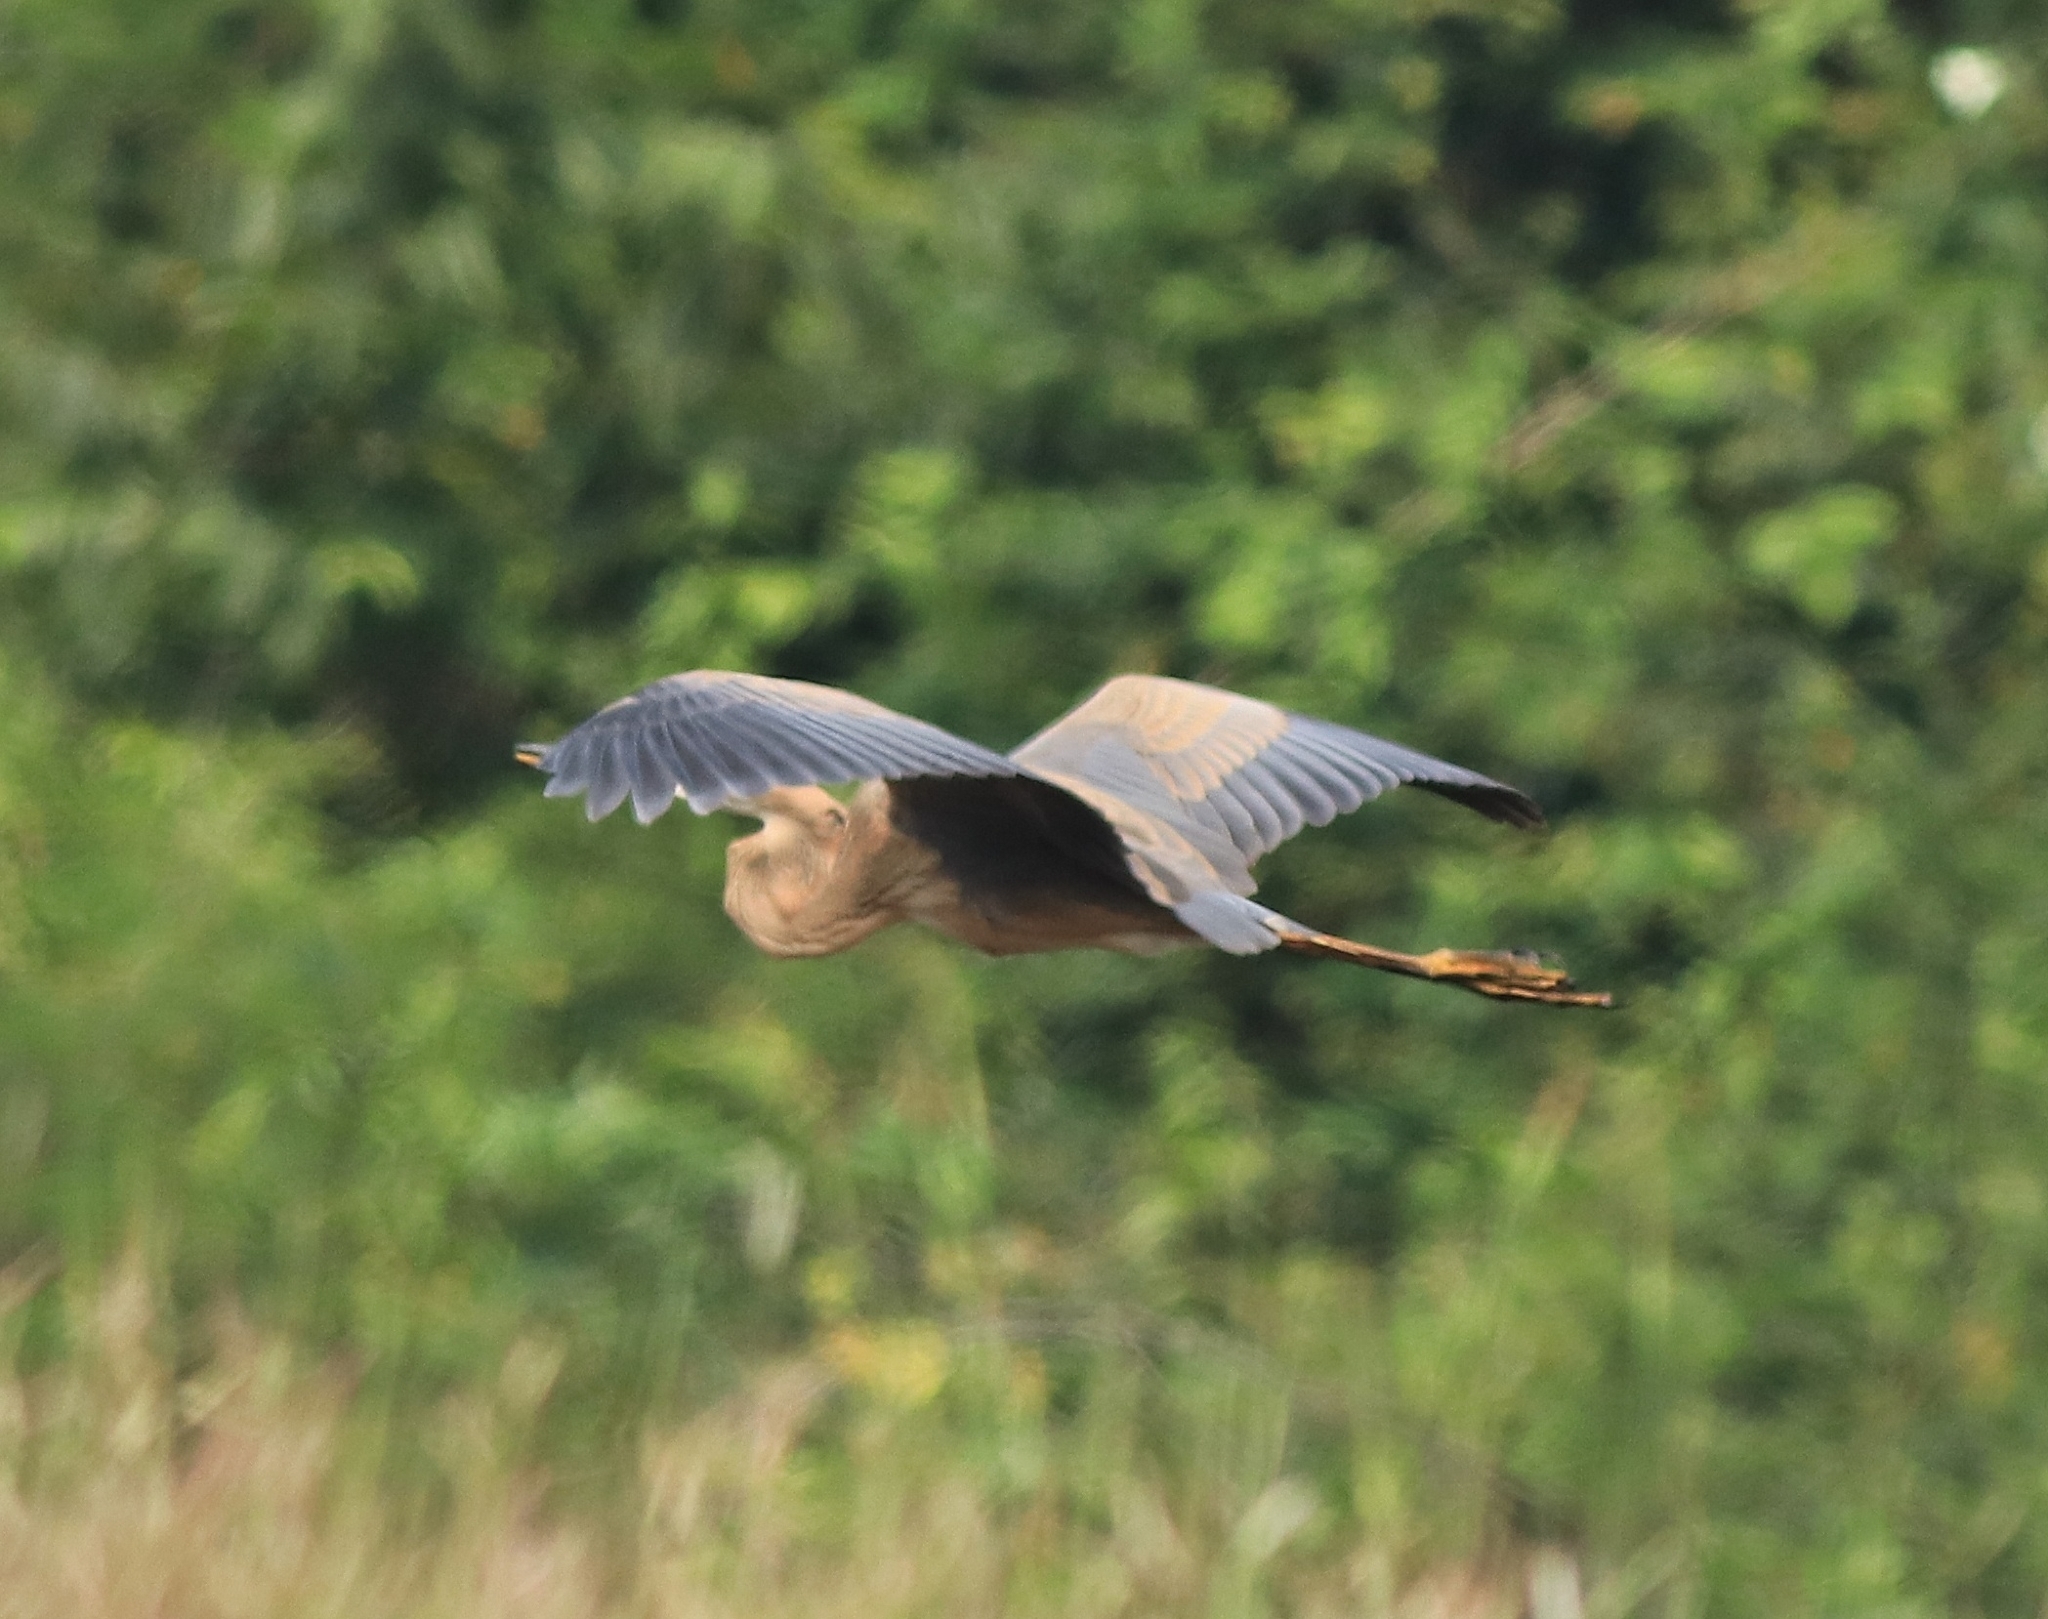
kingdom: Animalia
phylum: Chordata
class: Aves
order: Pelecaniformes
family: Ardeidae
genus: Ardea
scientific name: Ardea purpurea
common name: Purple heron
